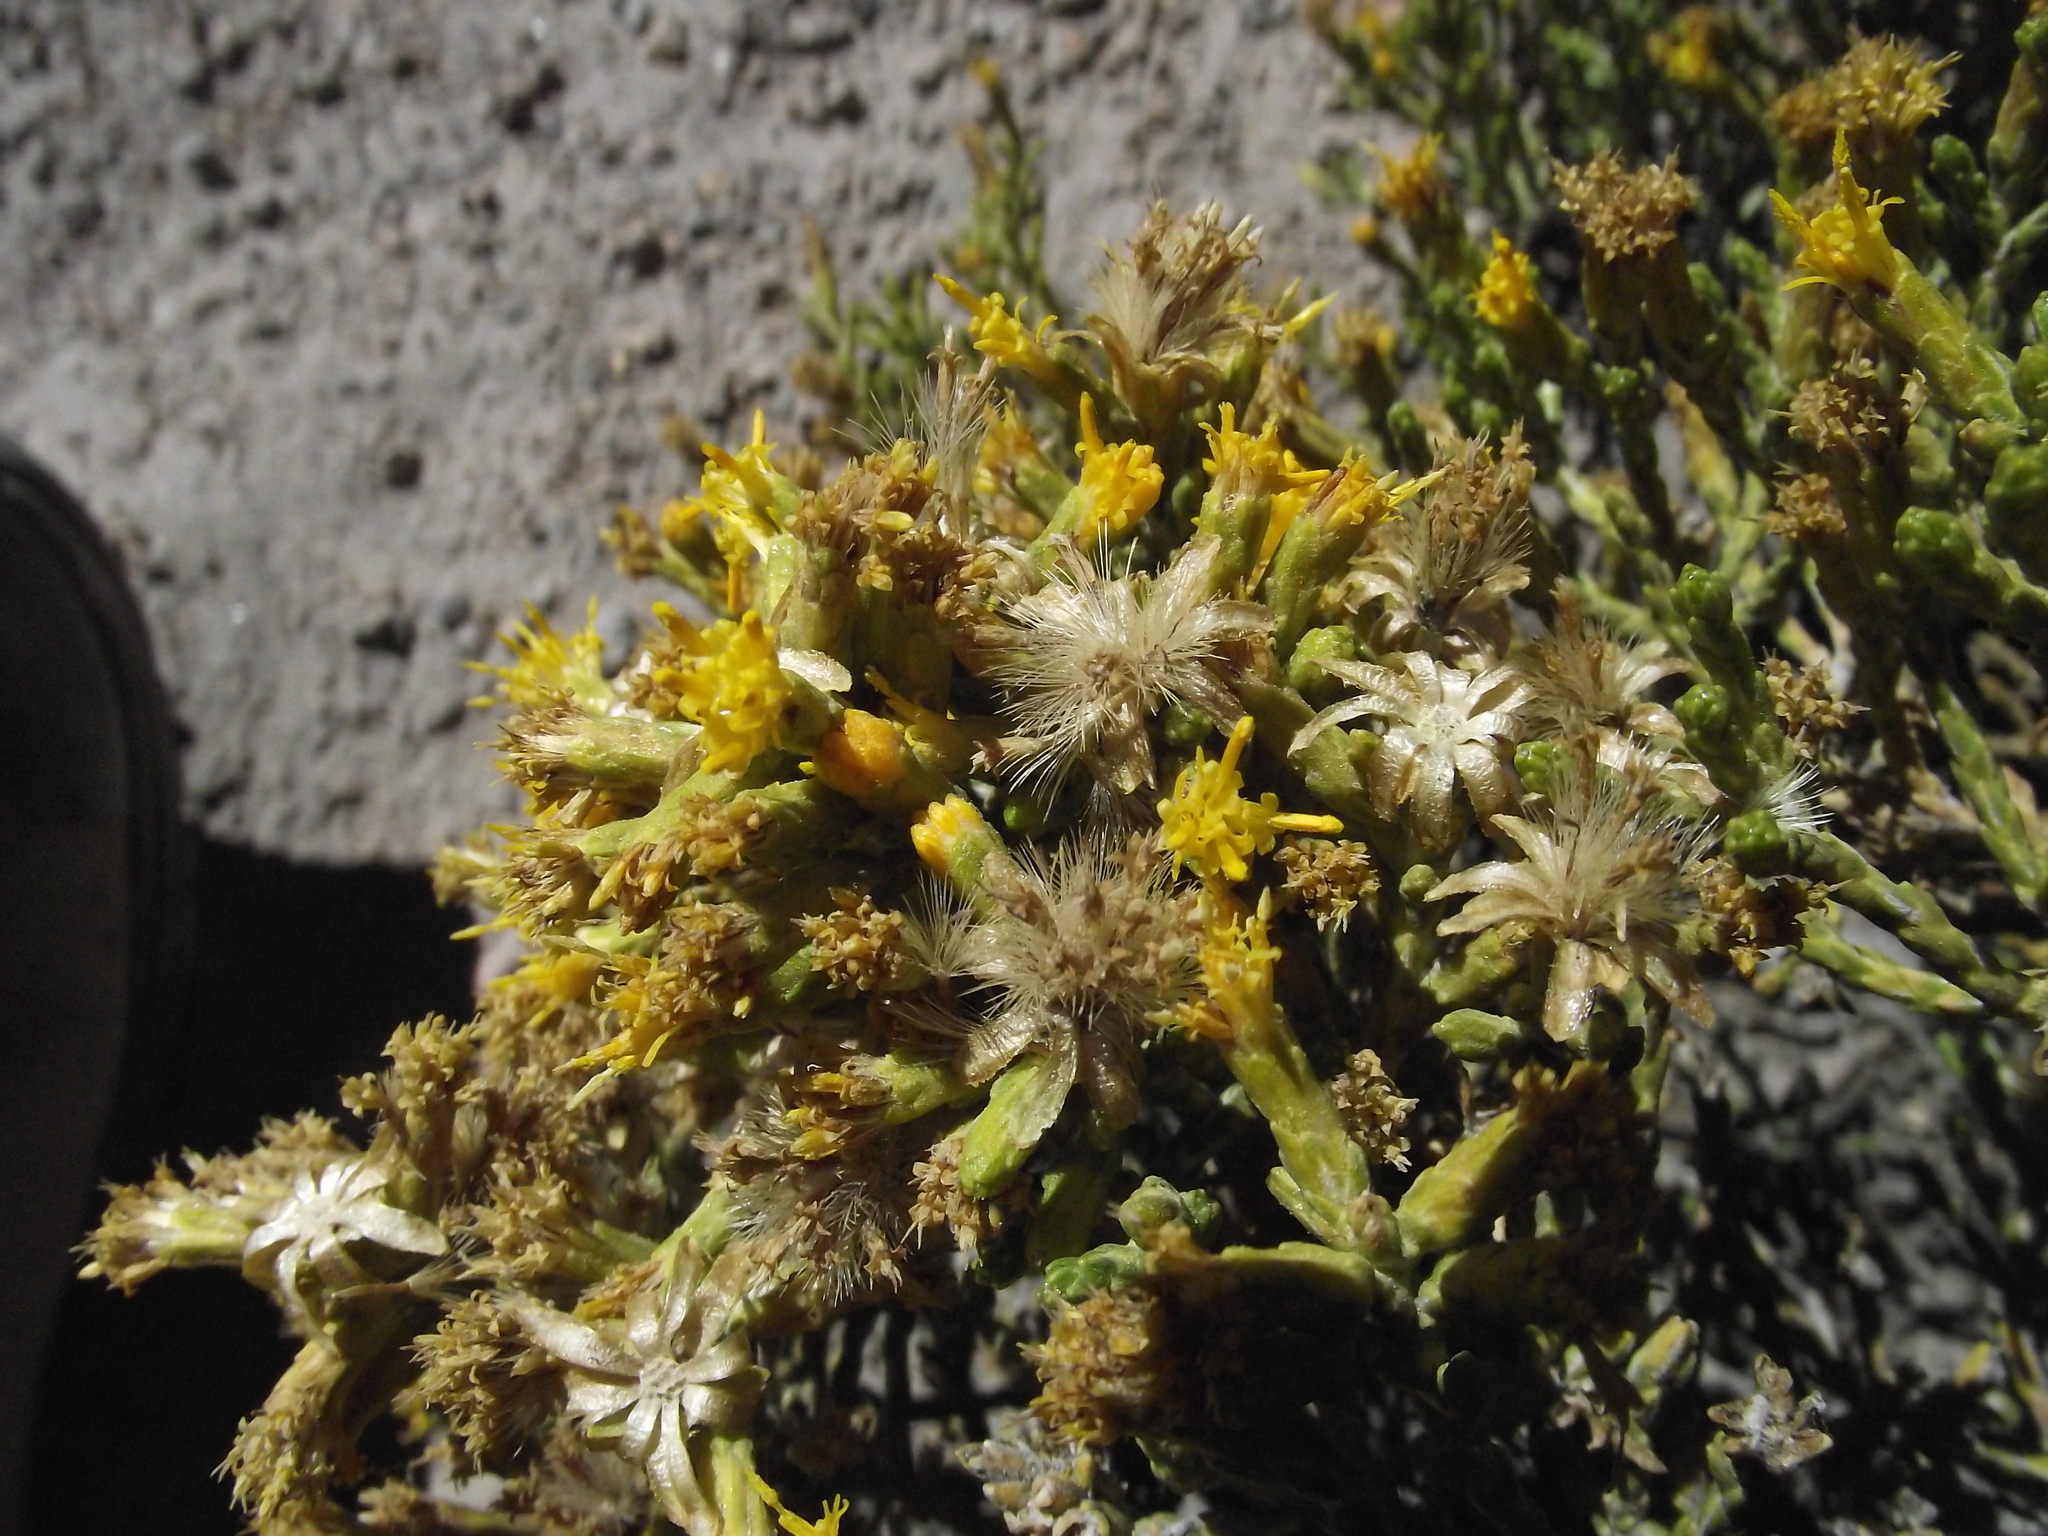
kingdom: Plantae
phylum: Tracheophyta
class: Magnoliopsida
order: Asterales
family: Asteraceae
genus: Parastrephia
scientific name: Parastrephia quadrangularis
